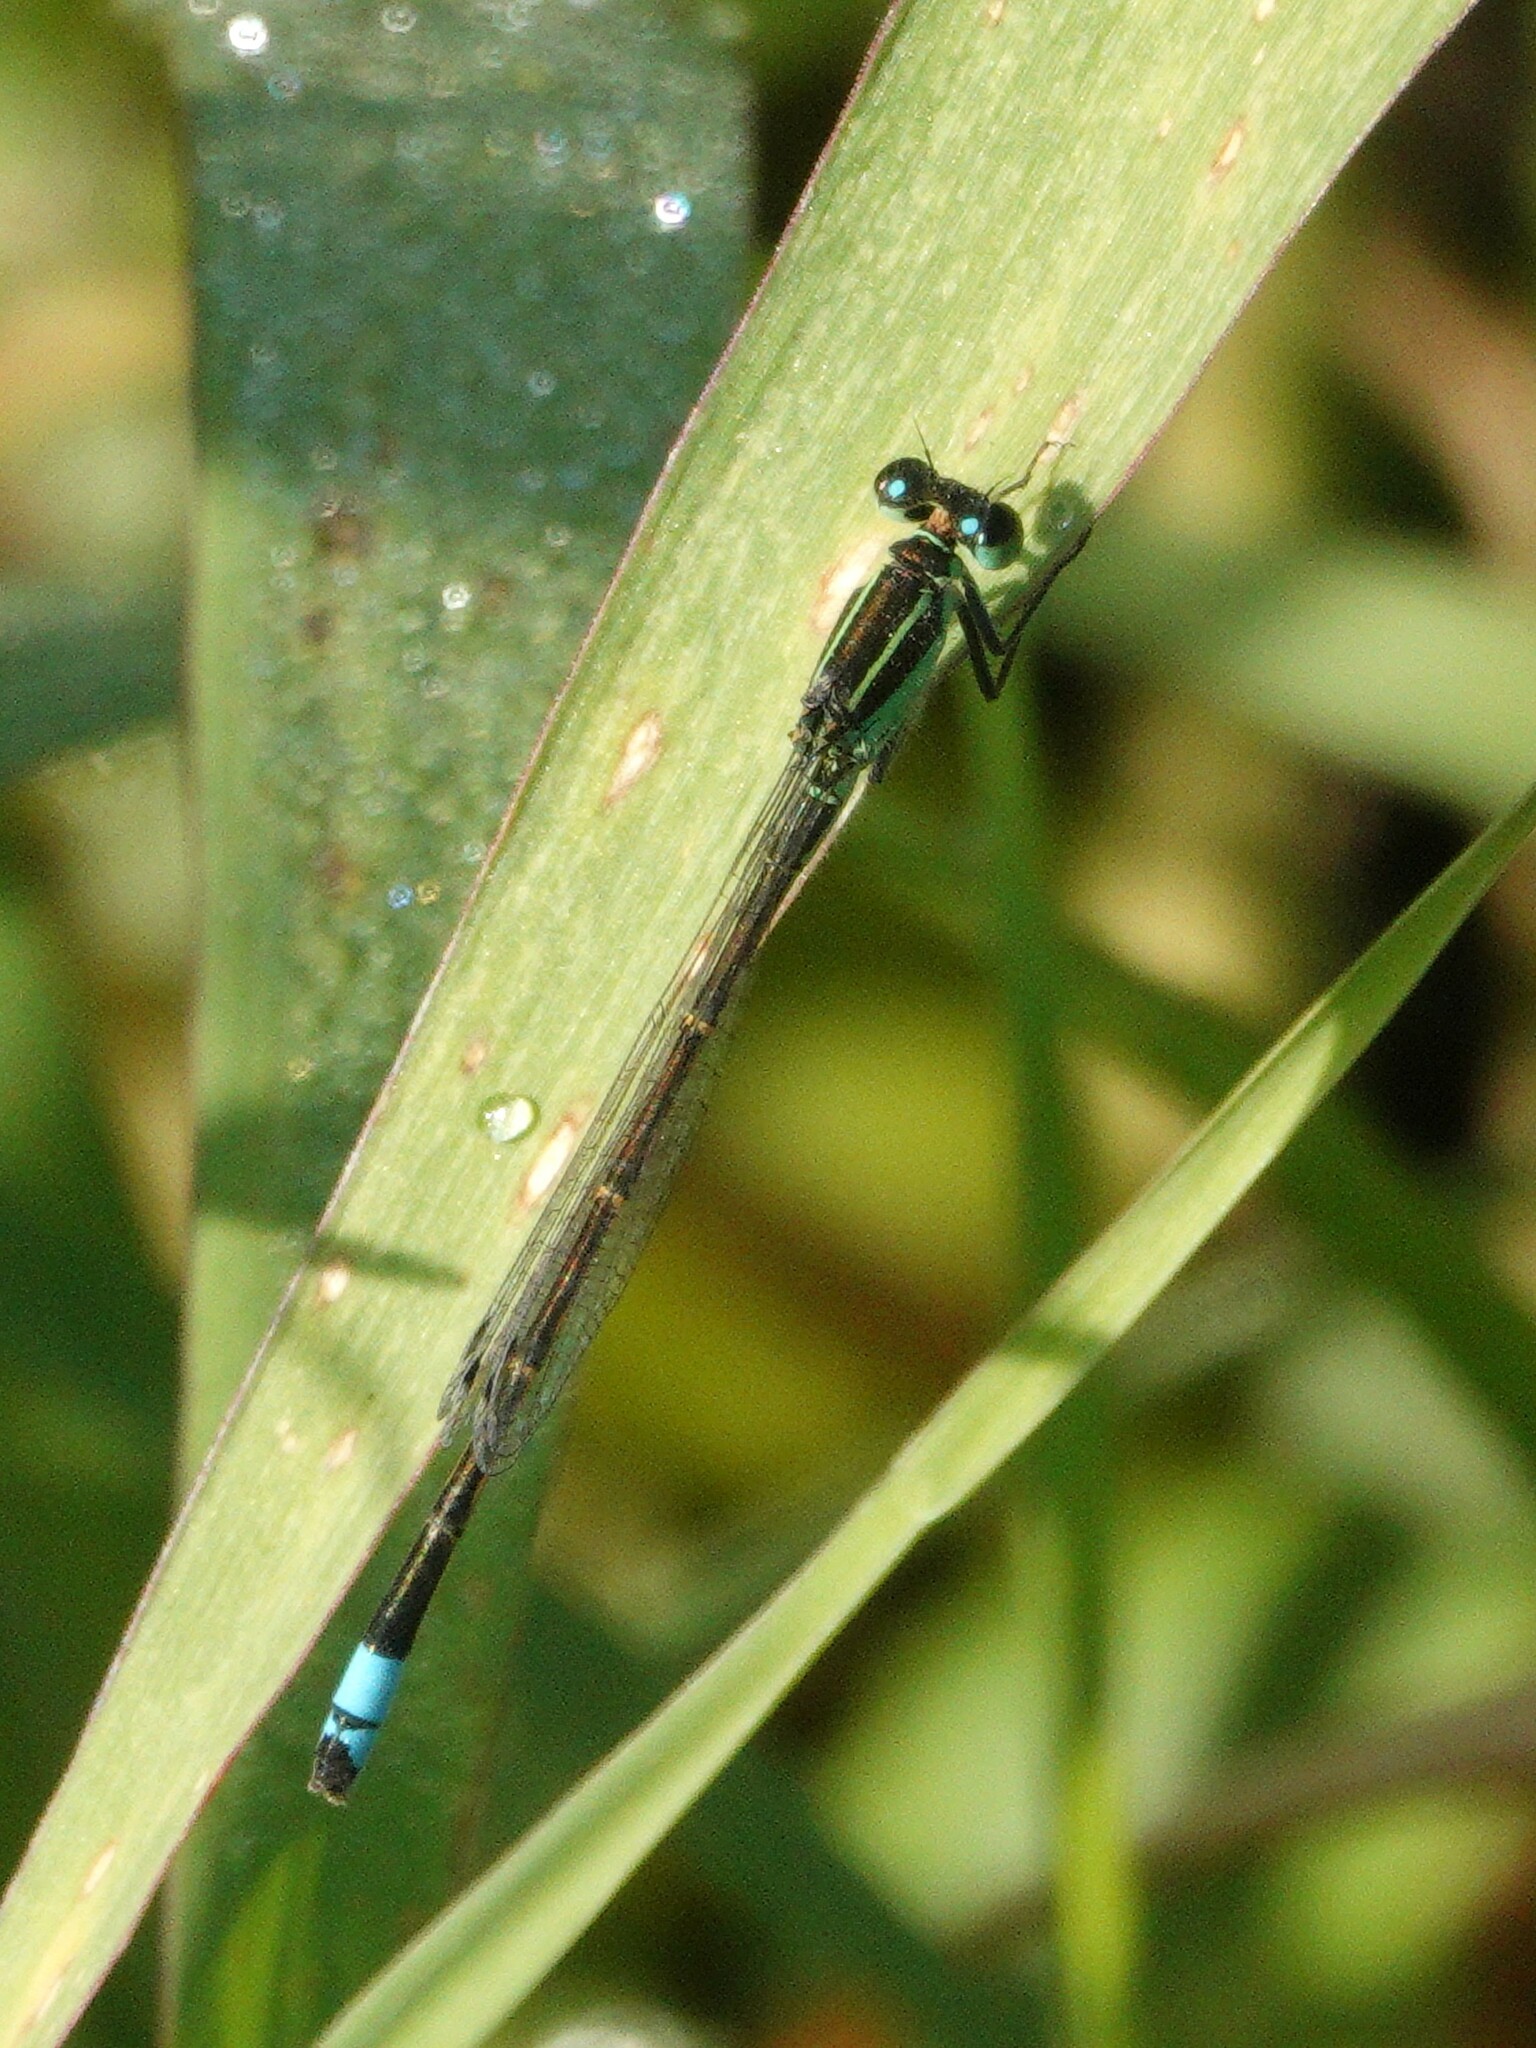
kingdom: Animalia
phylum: Arthropoda
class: Insecta
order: Odonata
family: Coenagrionidae
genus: Ischnura
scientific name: Ischnura ramburii
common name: Rambur's forktail
